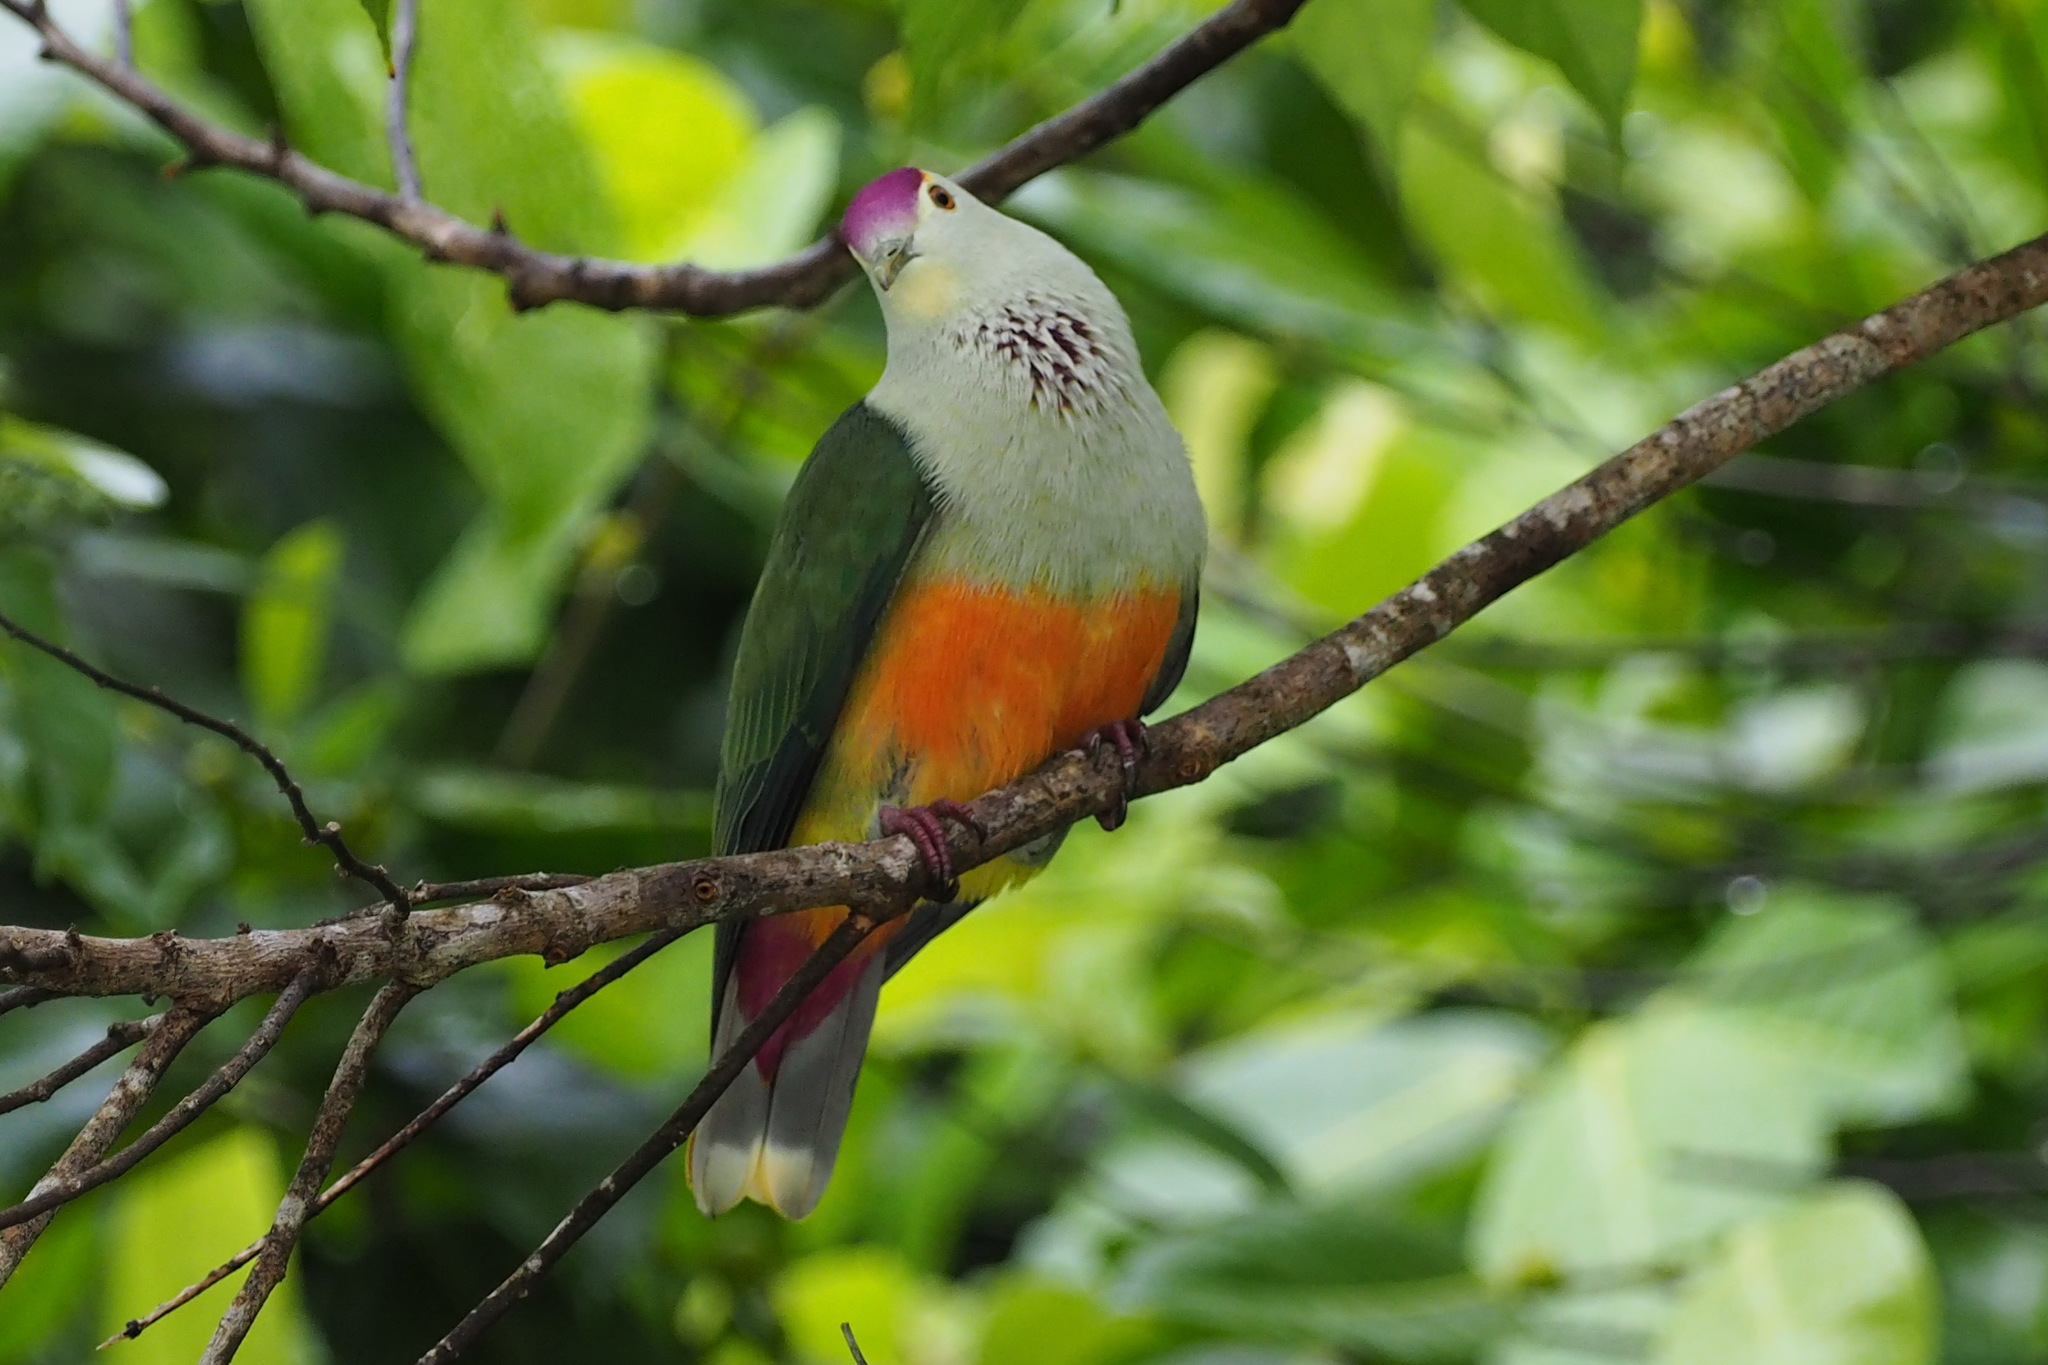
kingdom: Animalia
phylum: Chordata
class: Aves
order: Columbiformes
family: Columbidae
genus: Ptilinopus
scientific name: Ptilinopus pelewensis
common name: Palau fruit-dove
